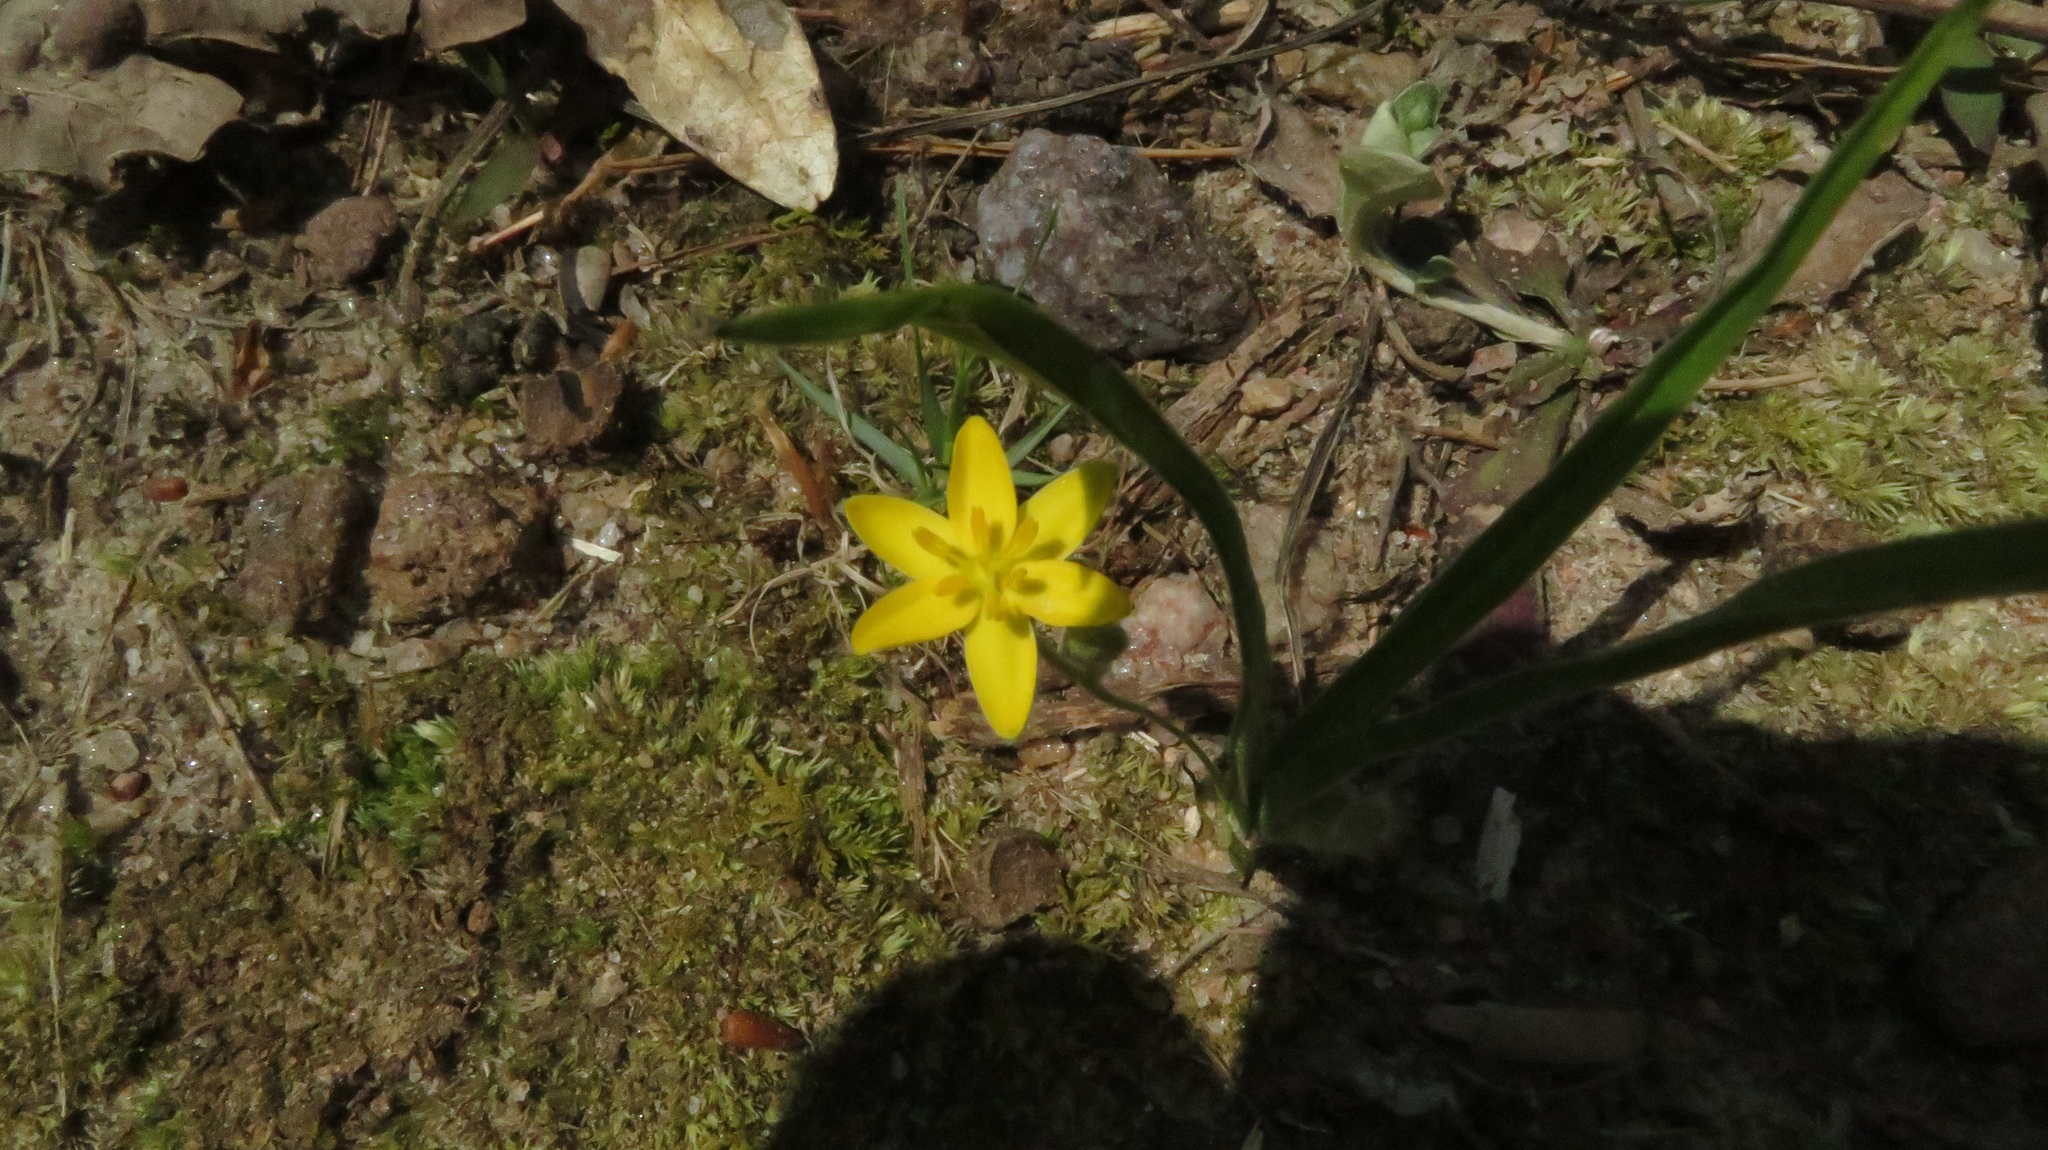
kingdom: Plantae
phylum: Tracheophyta
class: Liliopsida
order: Asparagales
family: Hypoxidaceae
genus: Hypoxis
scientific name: Hypoxis hirsuta
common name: Common goldstar
